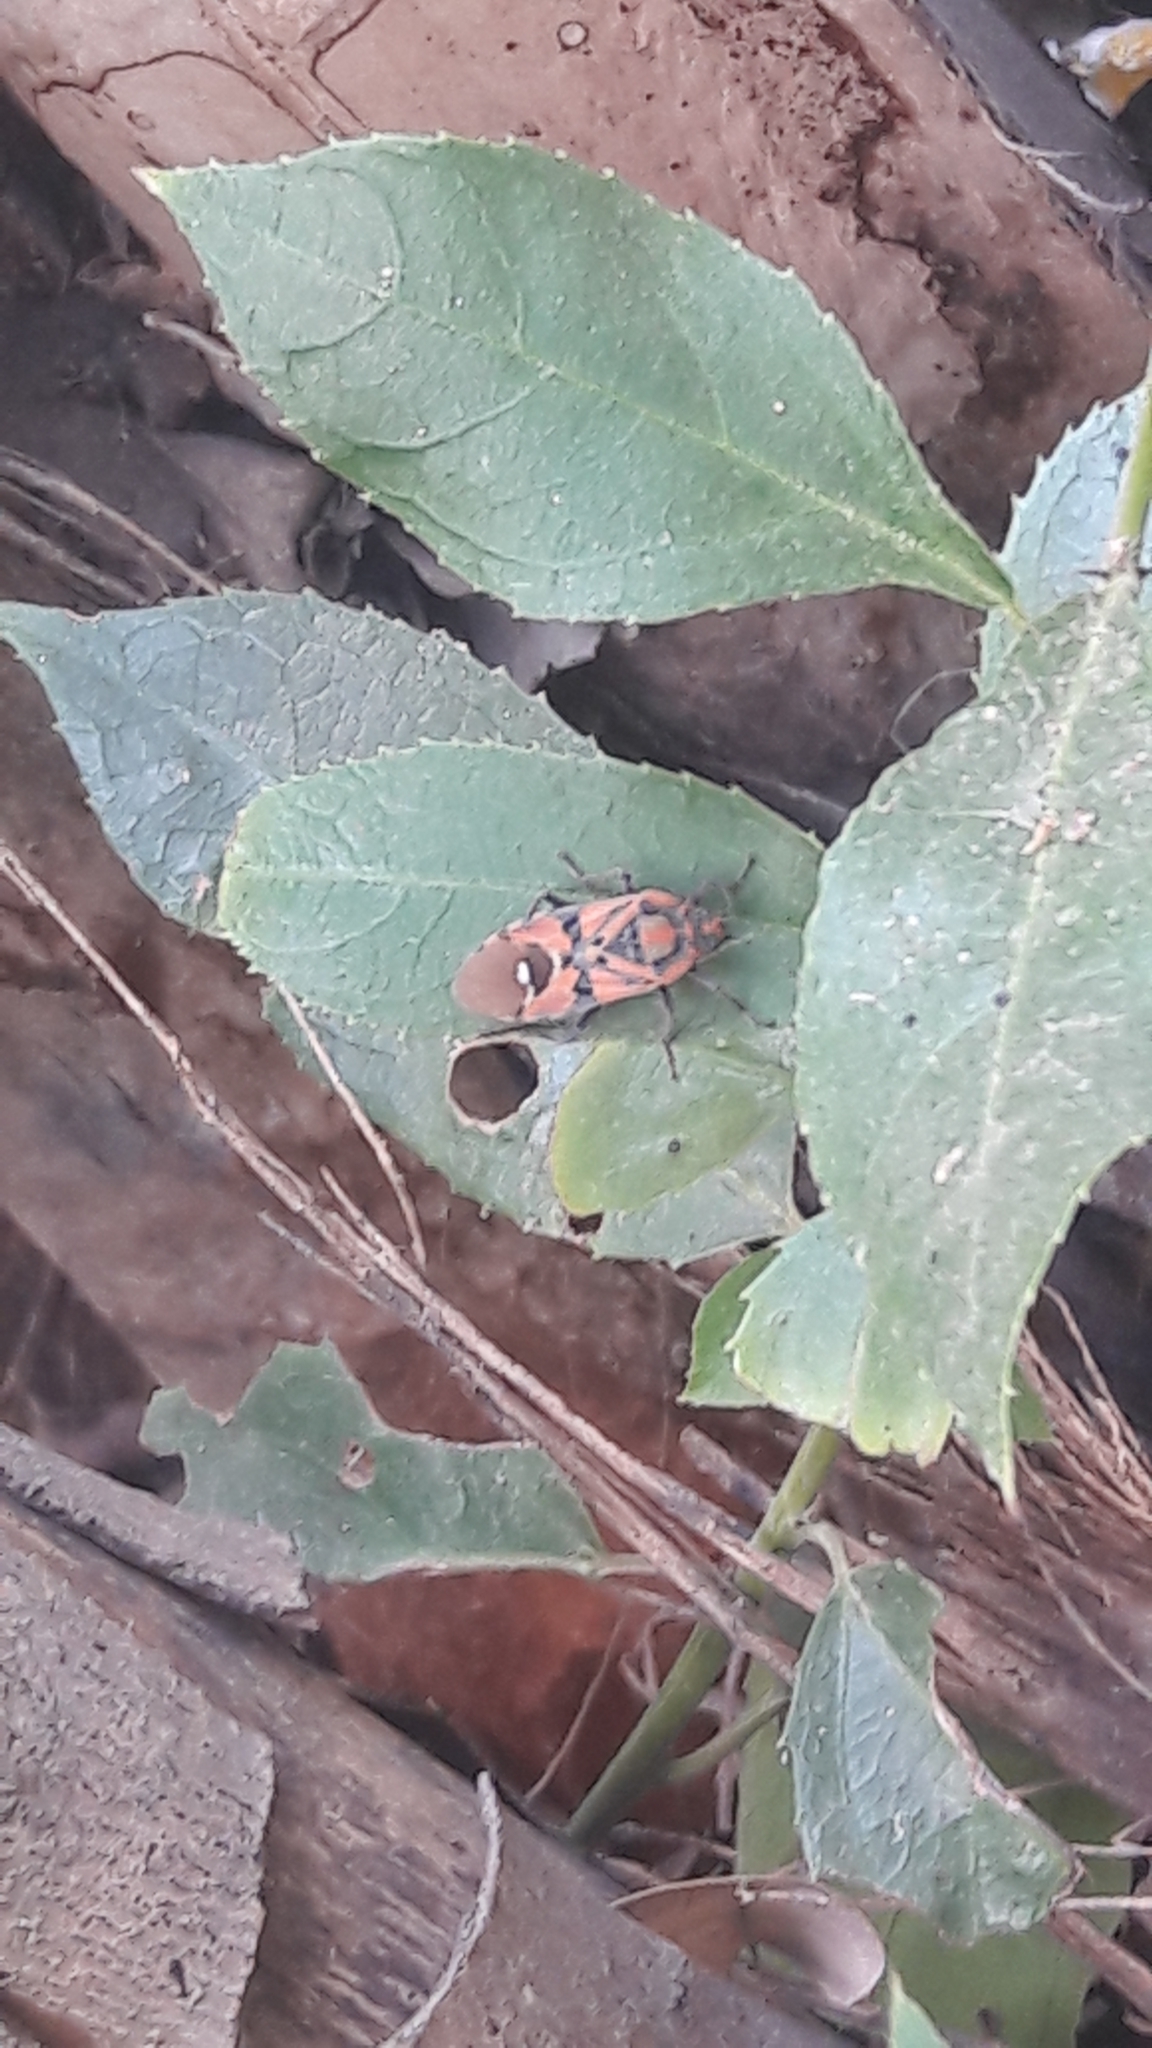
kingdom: Animalia
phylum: Arthropoda
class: Insecta
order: Hemiptera
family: Lygaeidae
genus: Spilostethus
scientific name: Spilostethus pandurus
